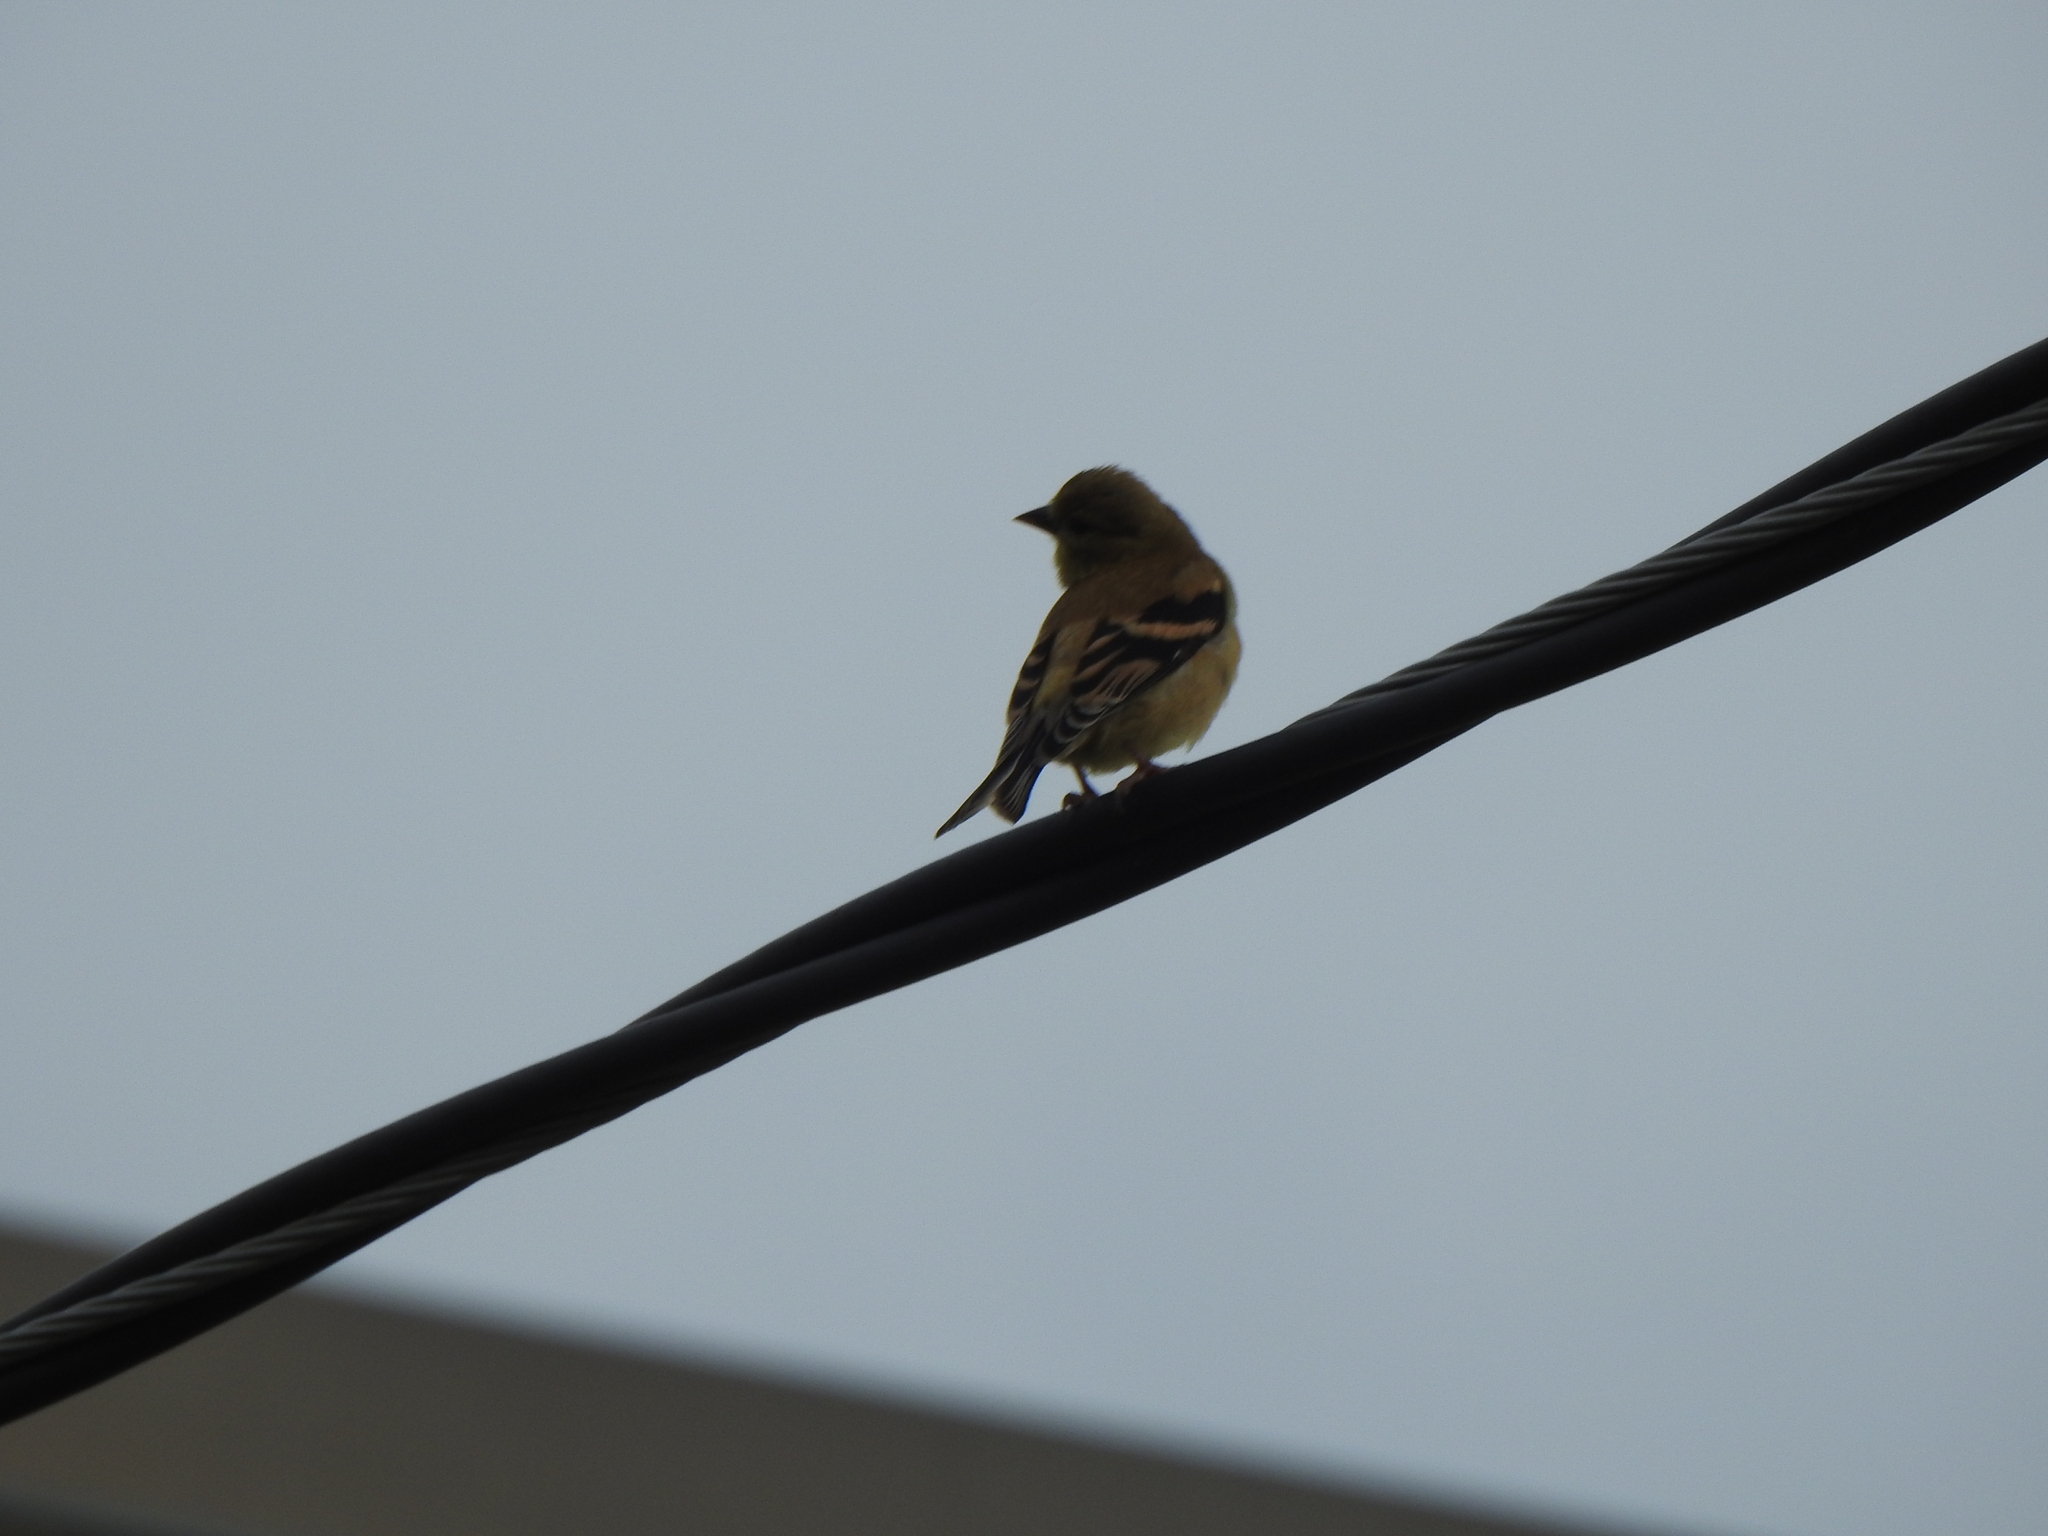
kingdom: Animalia
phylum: Chordata
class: Aves
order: Passeriformes
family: Fringillidae
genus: Spinus
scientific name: Spinus tristis
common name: American goldfinch
